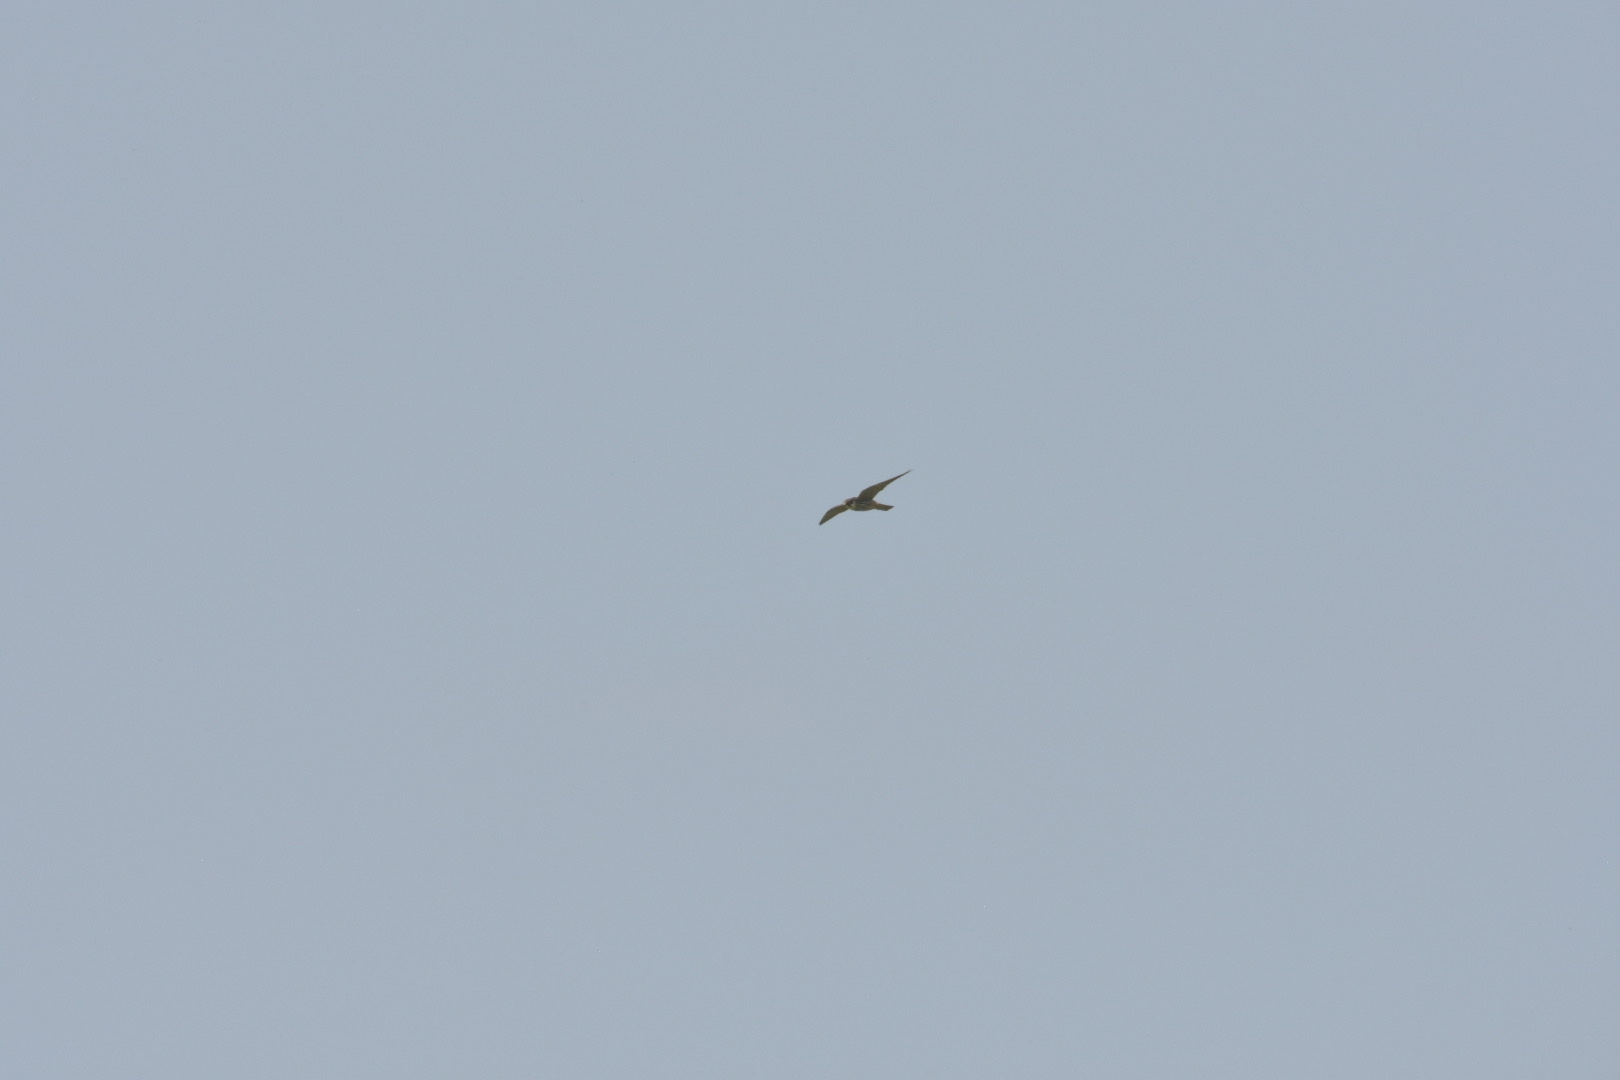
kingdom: Animalia
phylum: Chordata
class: Aves
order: Falconiformes
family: Falconidae
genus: Falco
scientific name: Falco subbuteo
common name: Eurasian hobby
